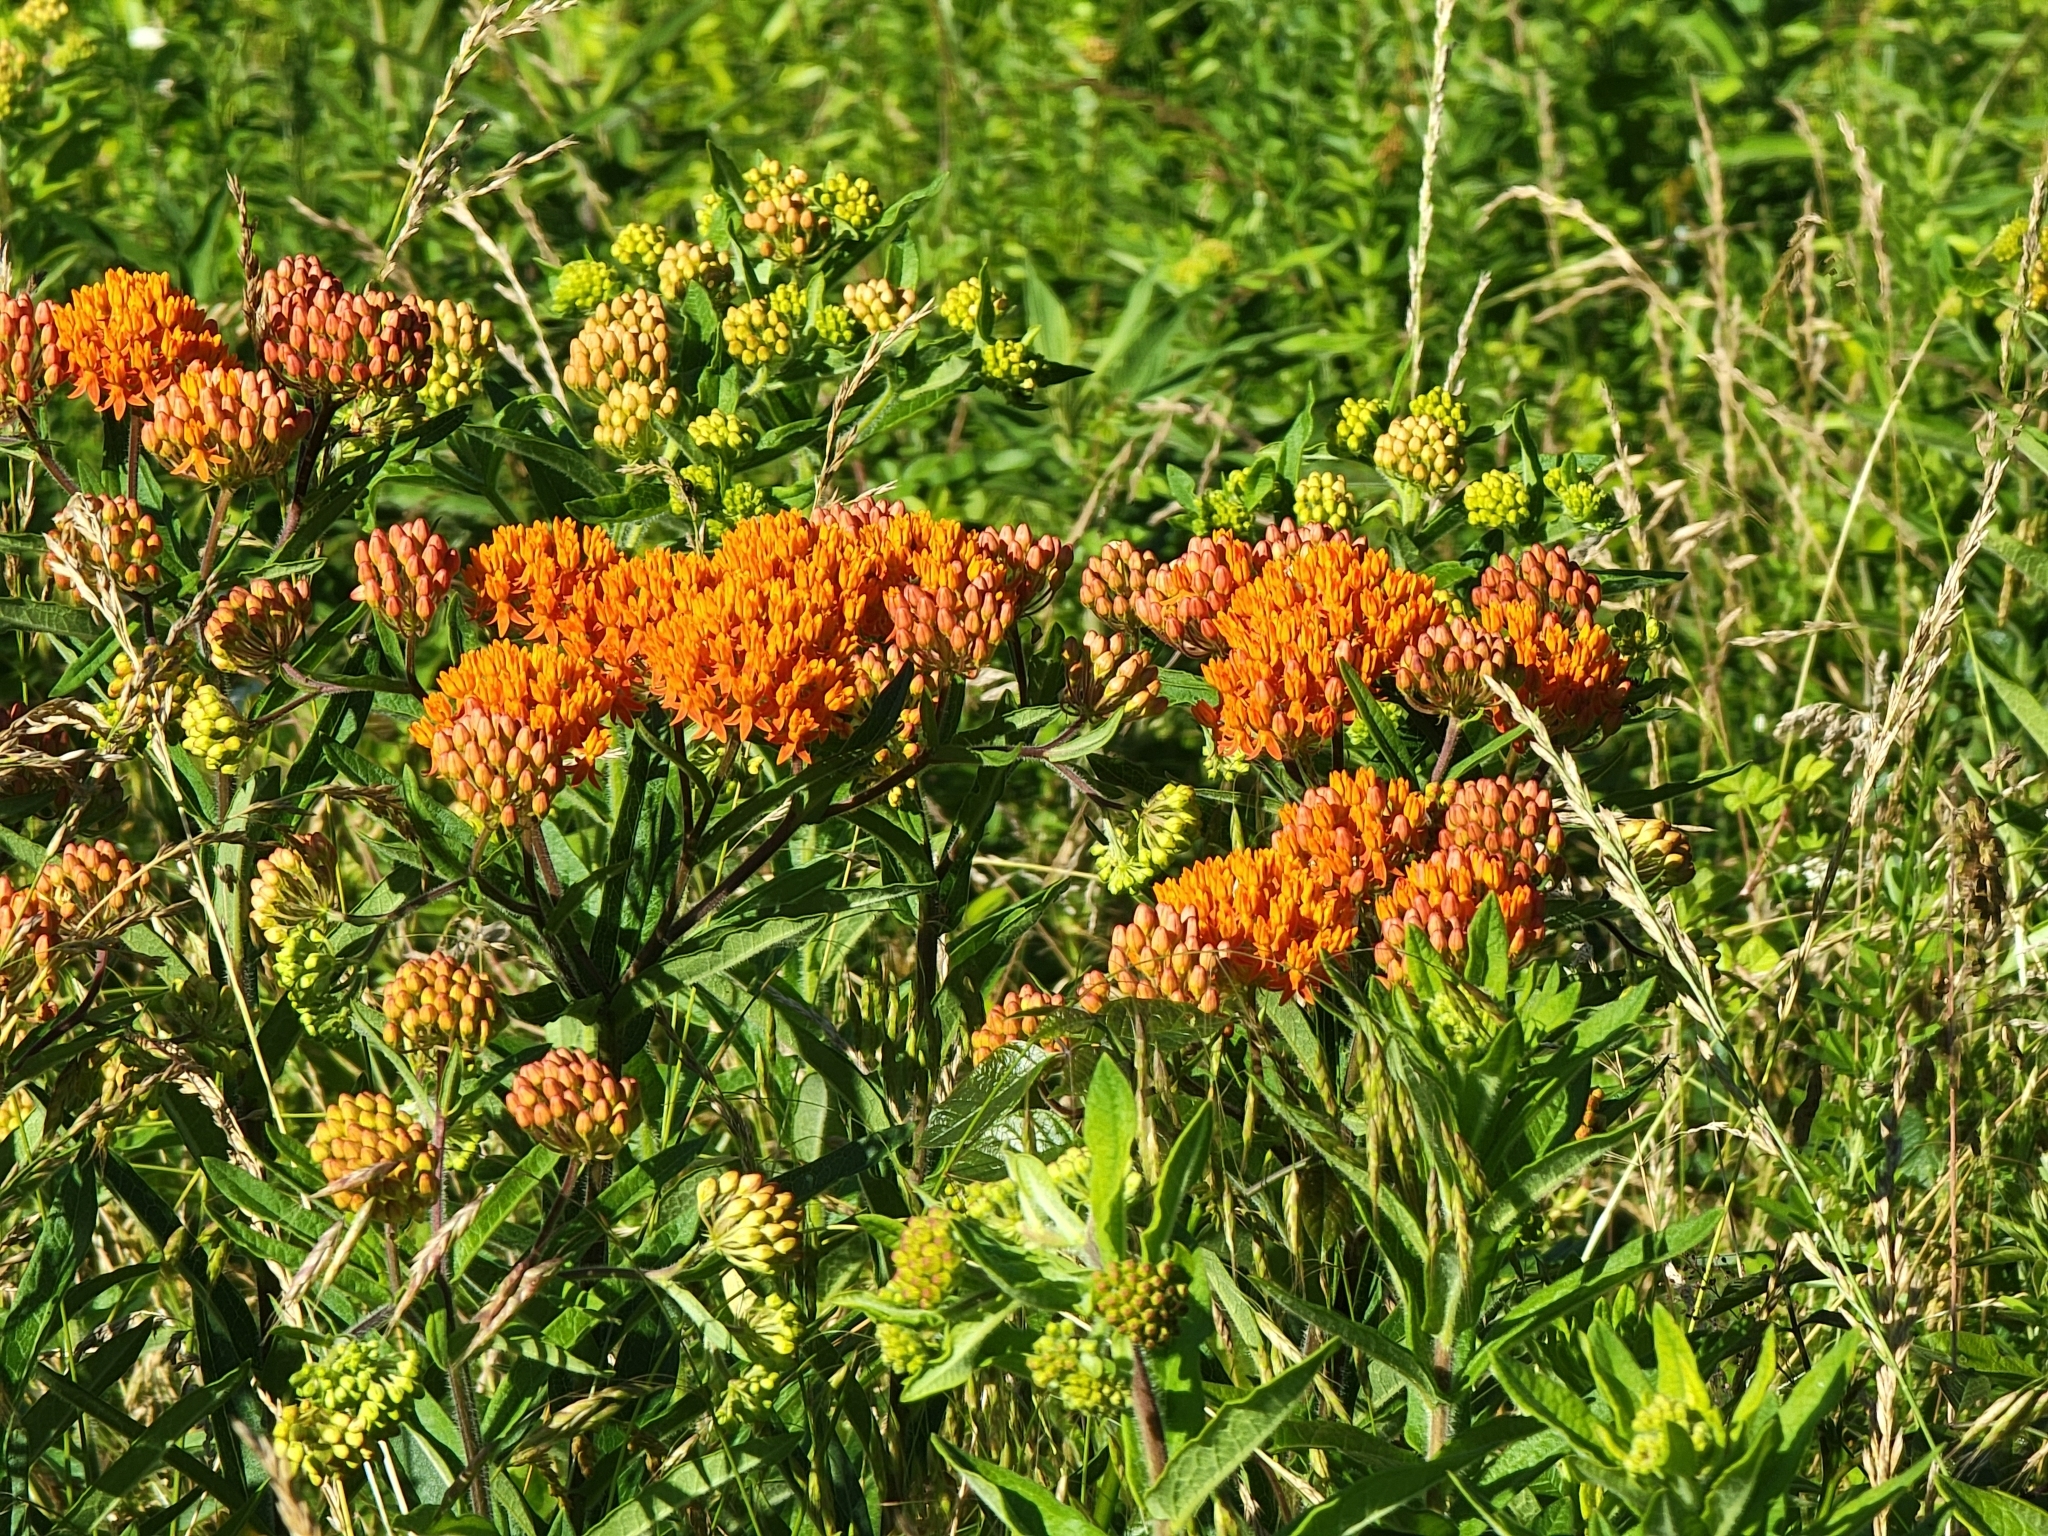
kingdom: Plantae
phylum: Tracheophyta
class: Magnoliopsida
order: Gentianales
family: Apocynaceae
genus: Asclepias
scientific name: Asclepias tuberosa
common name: Butterfly milkweed
